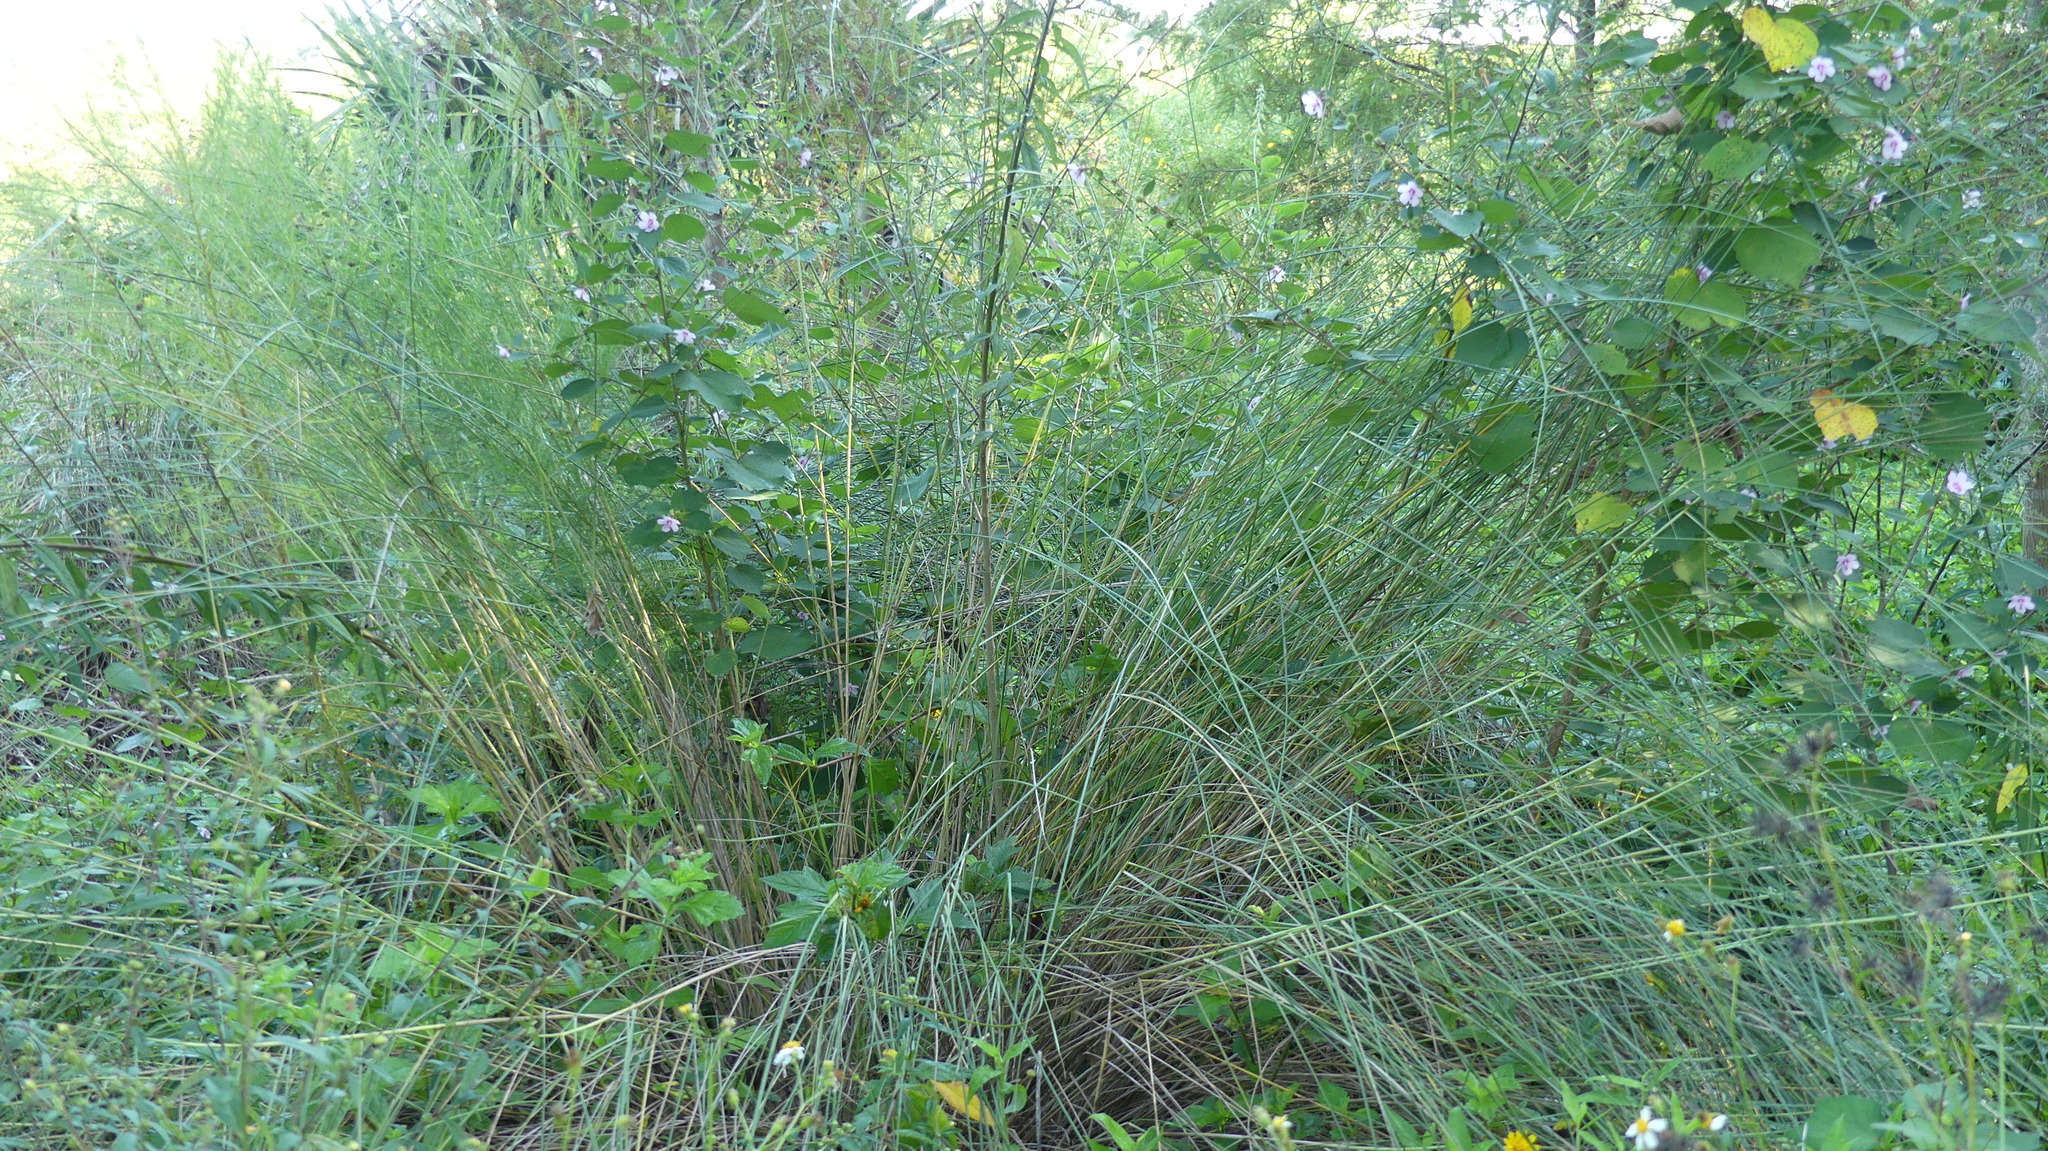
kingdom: Plantae
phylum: Tracheophyta
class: Magnoliopsida
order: Malvales
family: Malvaceae
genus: Urena
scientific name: Urena lobata
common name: Caesarweed
